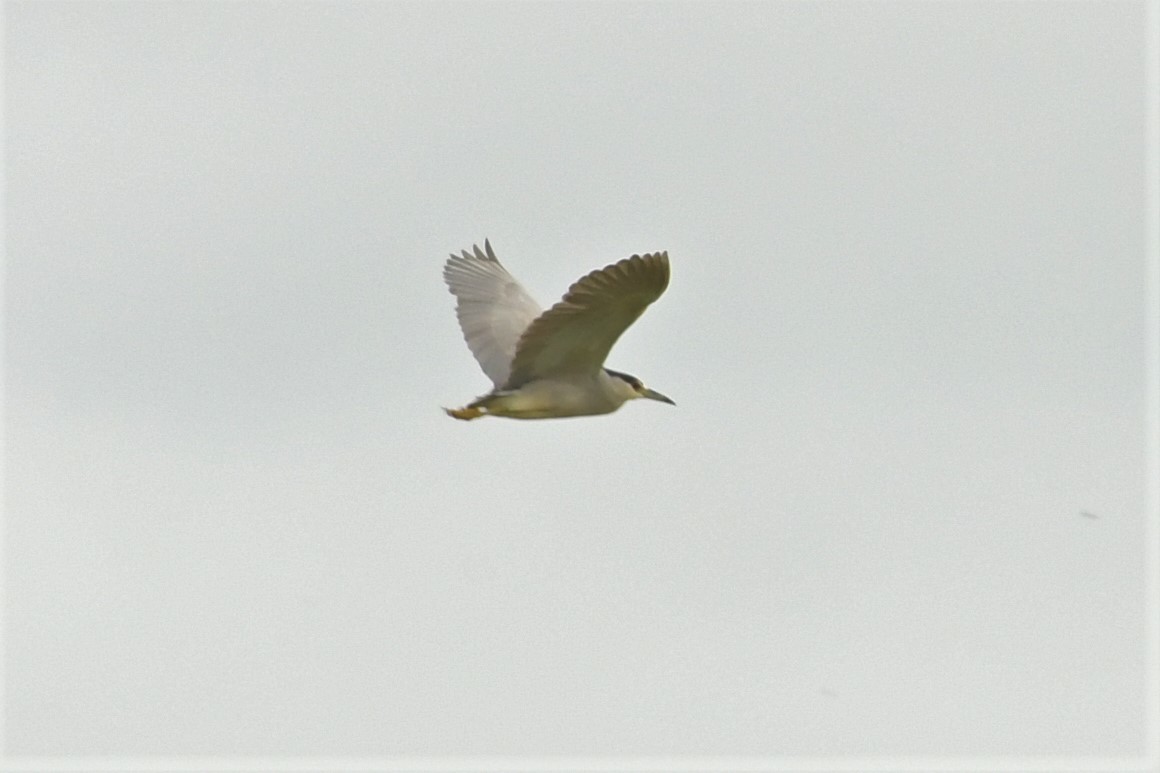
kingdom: Animalia
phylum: Chordata
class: Aves
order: Pelecaniformes
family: Ardeidae
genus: Nycticorax
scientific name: Nycticorax nycticorax
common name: Black-crowned night heron
